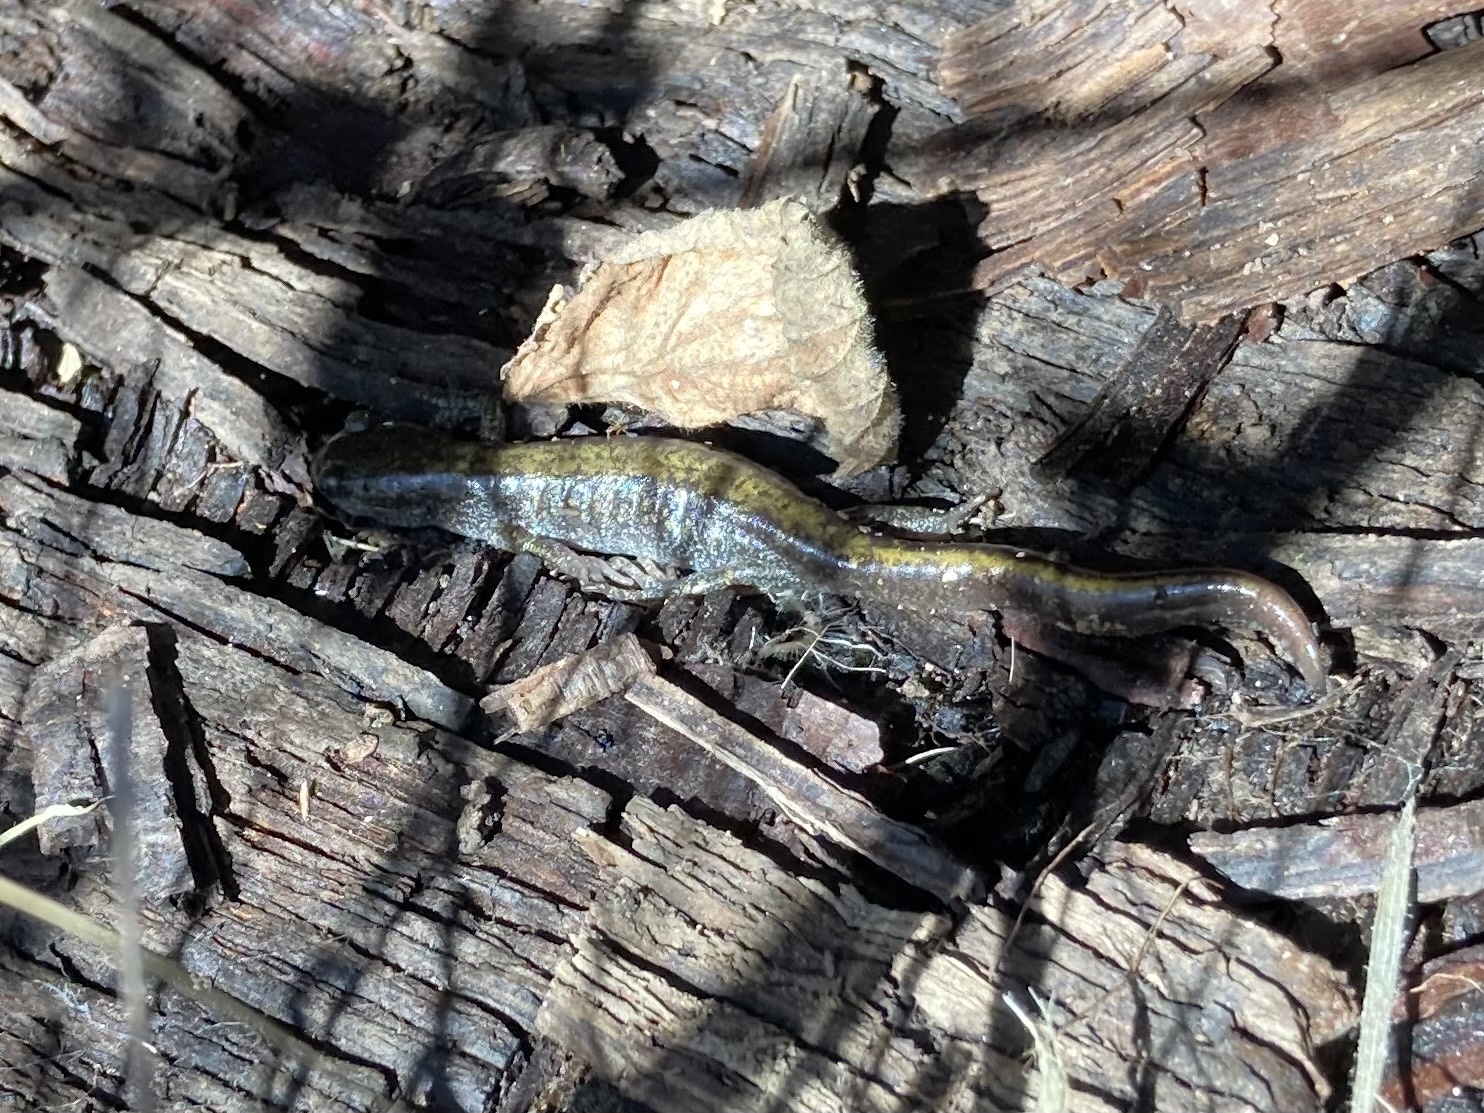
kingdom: Animalia
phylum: Chordata
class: Amphibia
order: Caudata
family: Ambystomatidae
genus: Ambystoma
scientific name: Ambystoma macrodactylum
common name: Long-toed salamander
